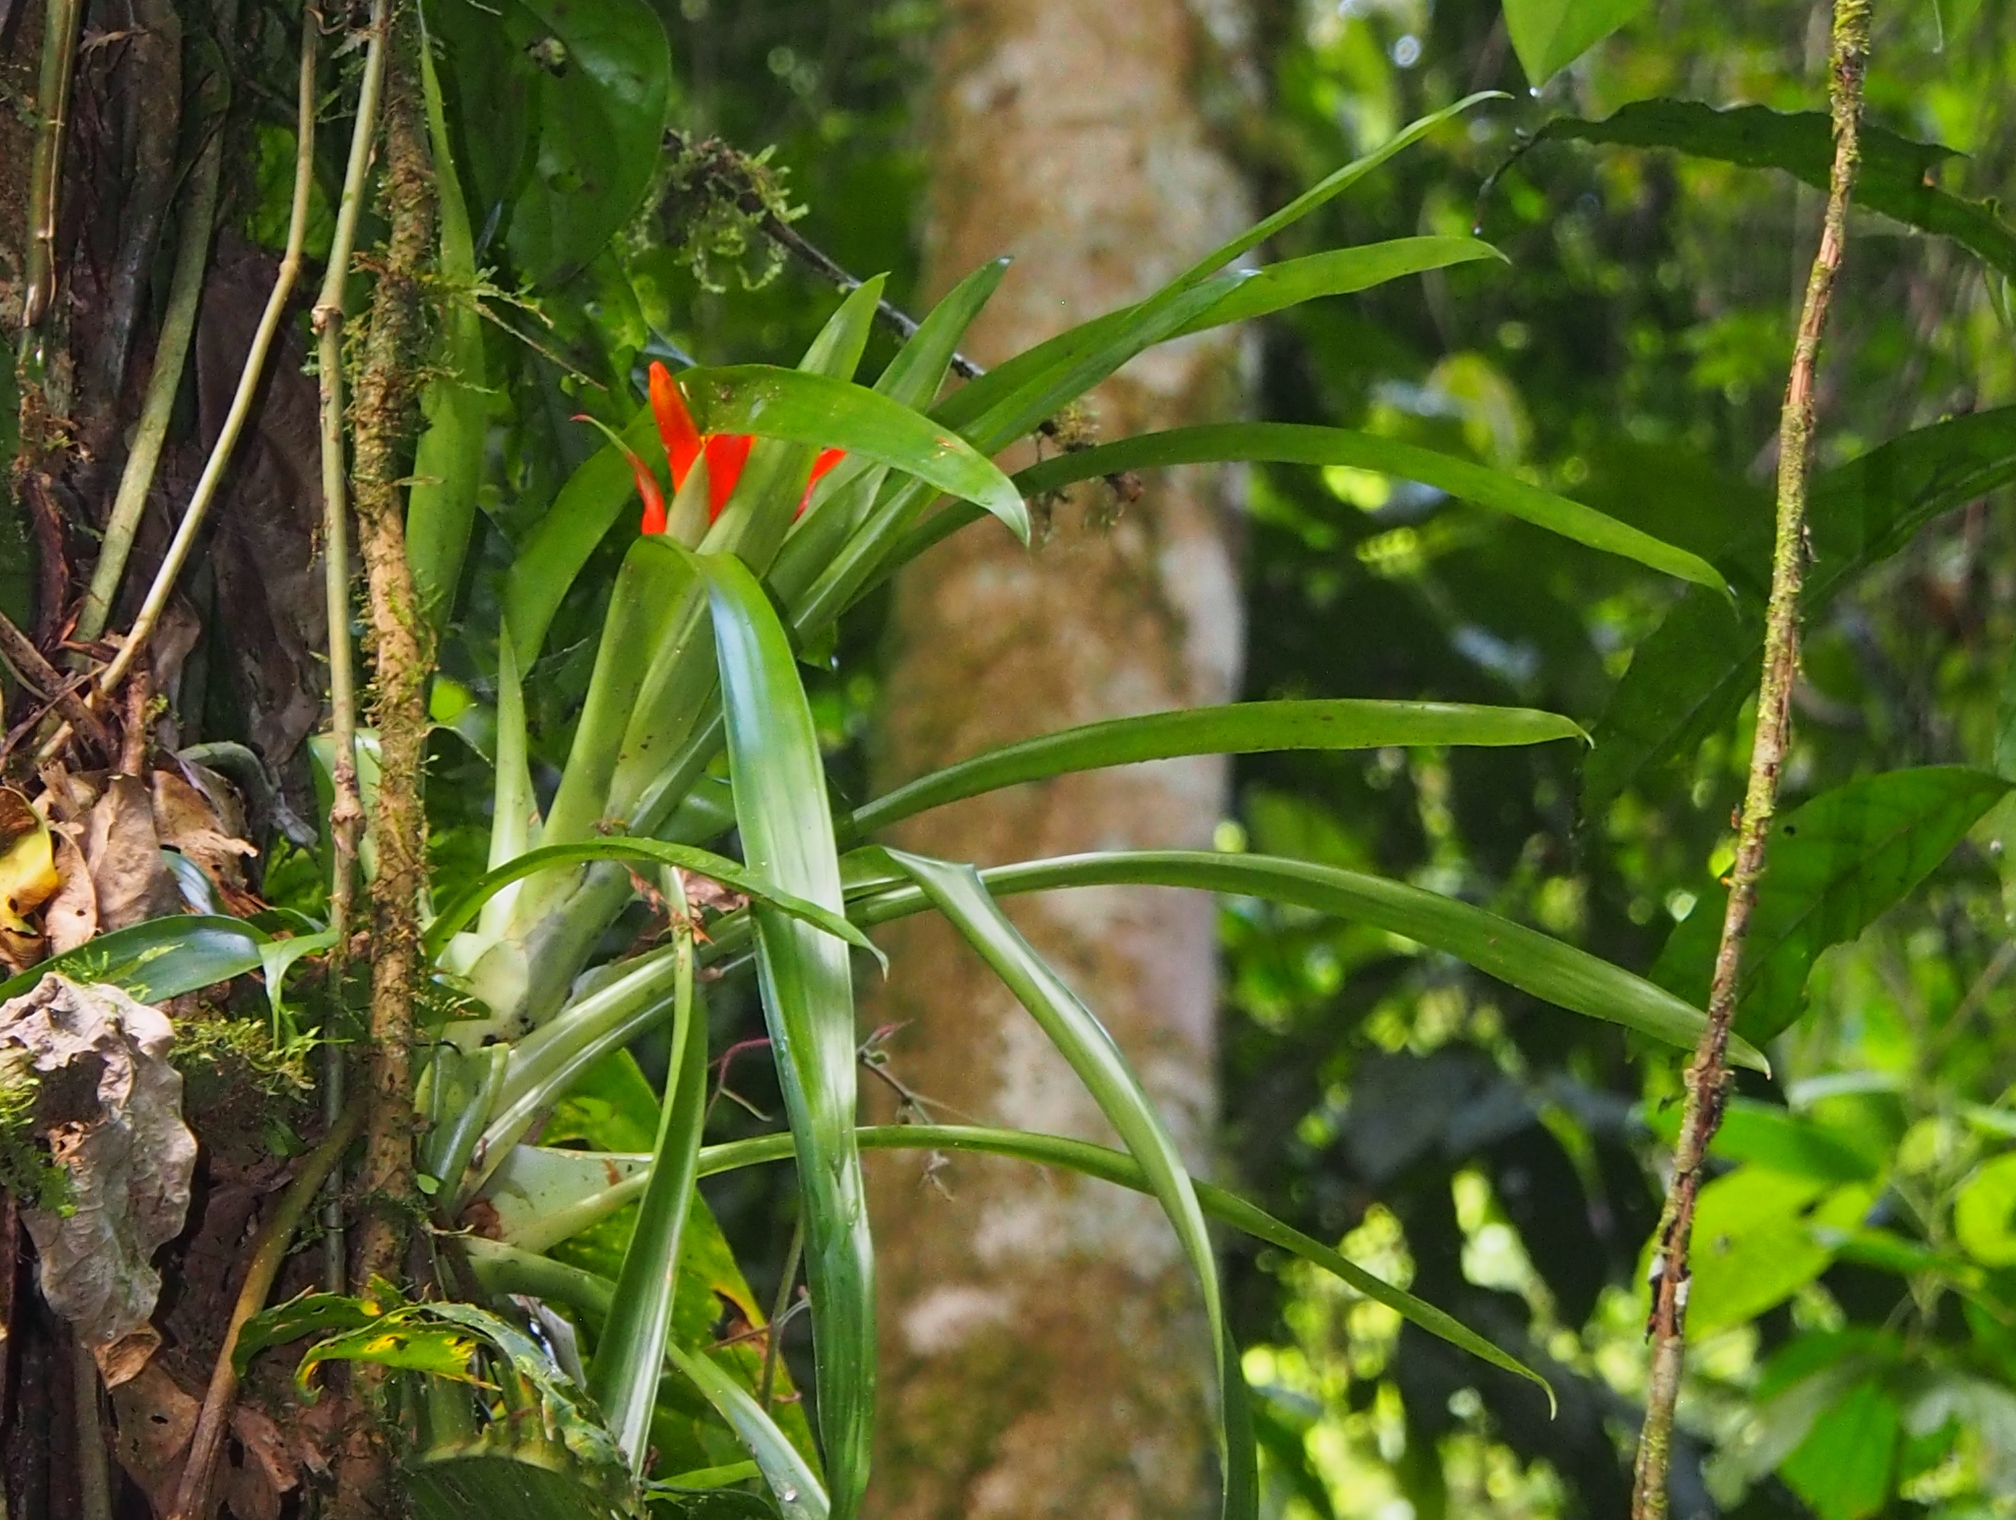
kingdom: Plantae
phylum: Tracheophyta
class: Liliopsida
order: Poales
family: Bromeliaceae
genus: Guzmania
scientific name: Guzmania lingulata
